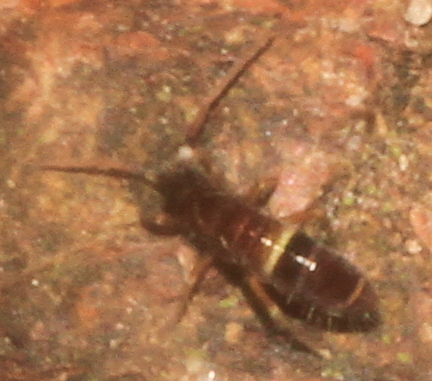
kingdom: Animalia
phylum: Arthropoda
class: Collembola
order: Entomobryomorpha
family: Orchesellidae
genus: Orchesella
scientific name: Orchesella cincta
